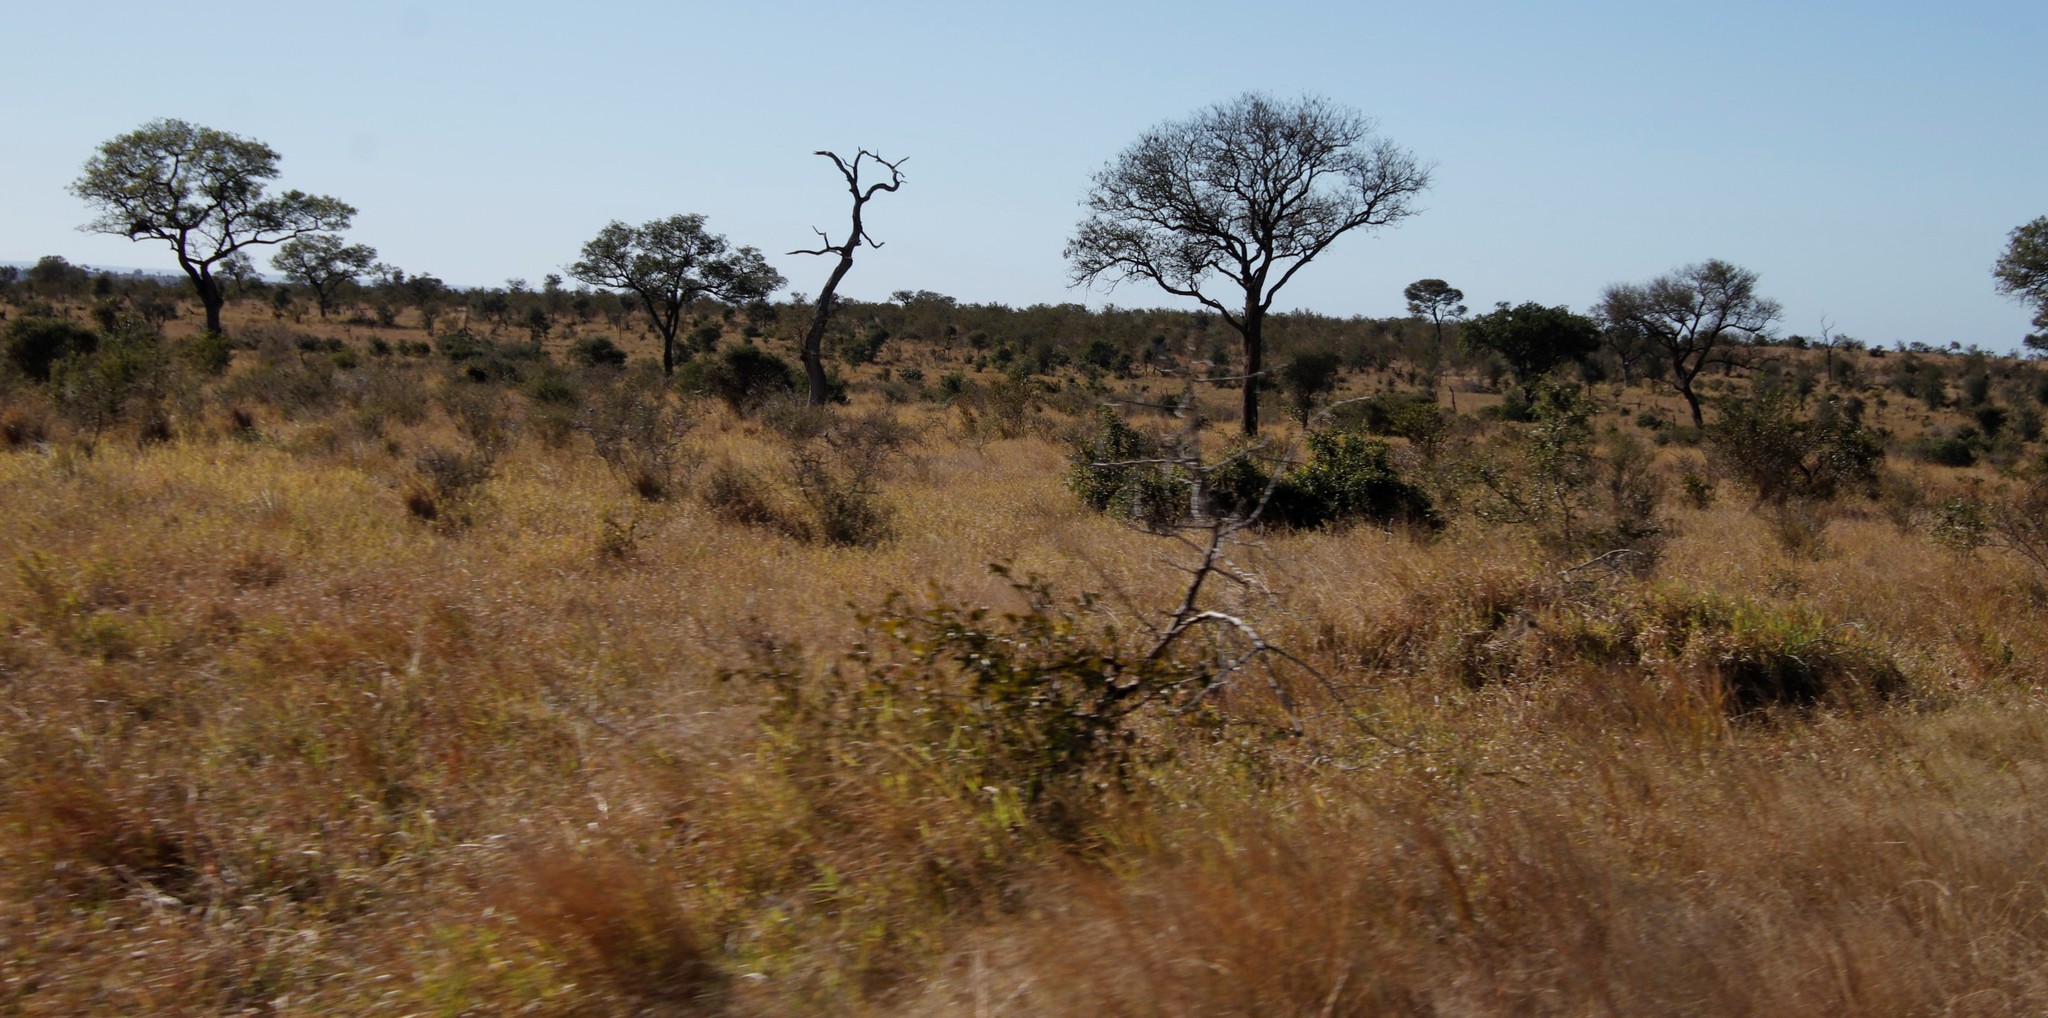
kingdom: Plantae
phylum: Tracheophyta
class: Magnoliopsida
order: Fabales
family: Fabaceae
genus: Senegalia
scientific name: Senegalia nigrescens
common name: Knobthorn
